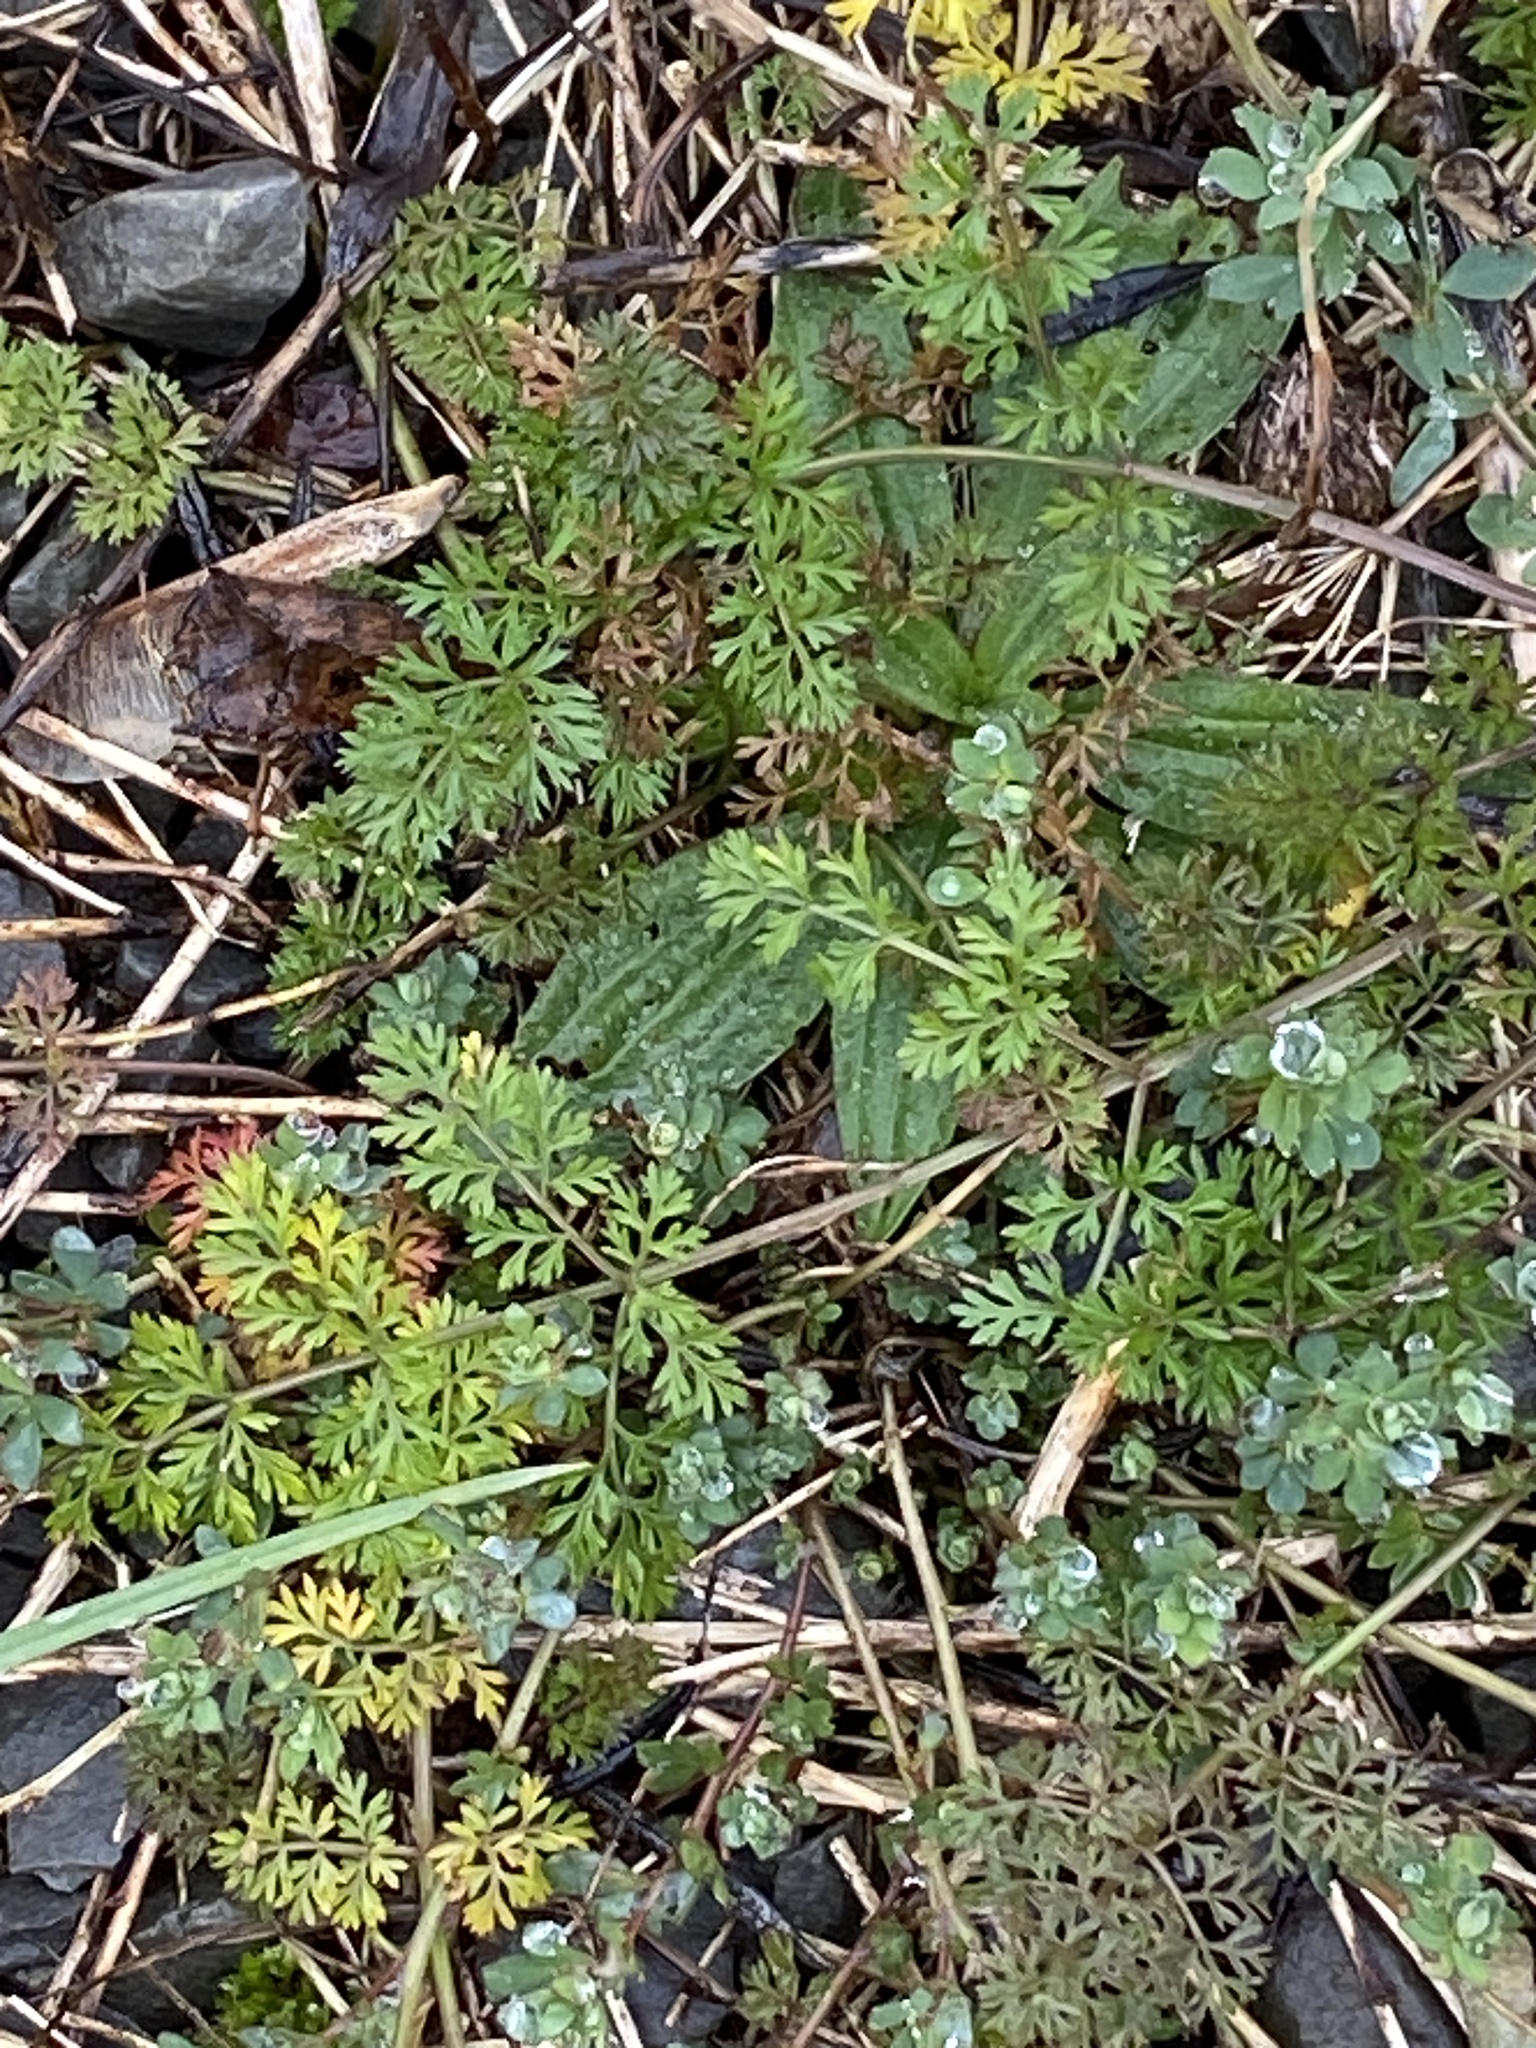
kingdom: Plantae
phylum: Tracheophyta
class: Magnoliopsida
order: Apiales
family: Apiaceae
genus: Daucus
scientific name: Daucus carota
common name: Wild carrot
